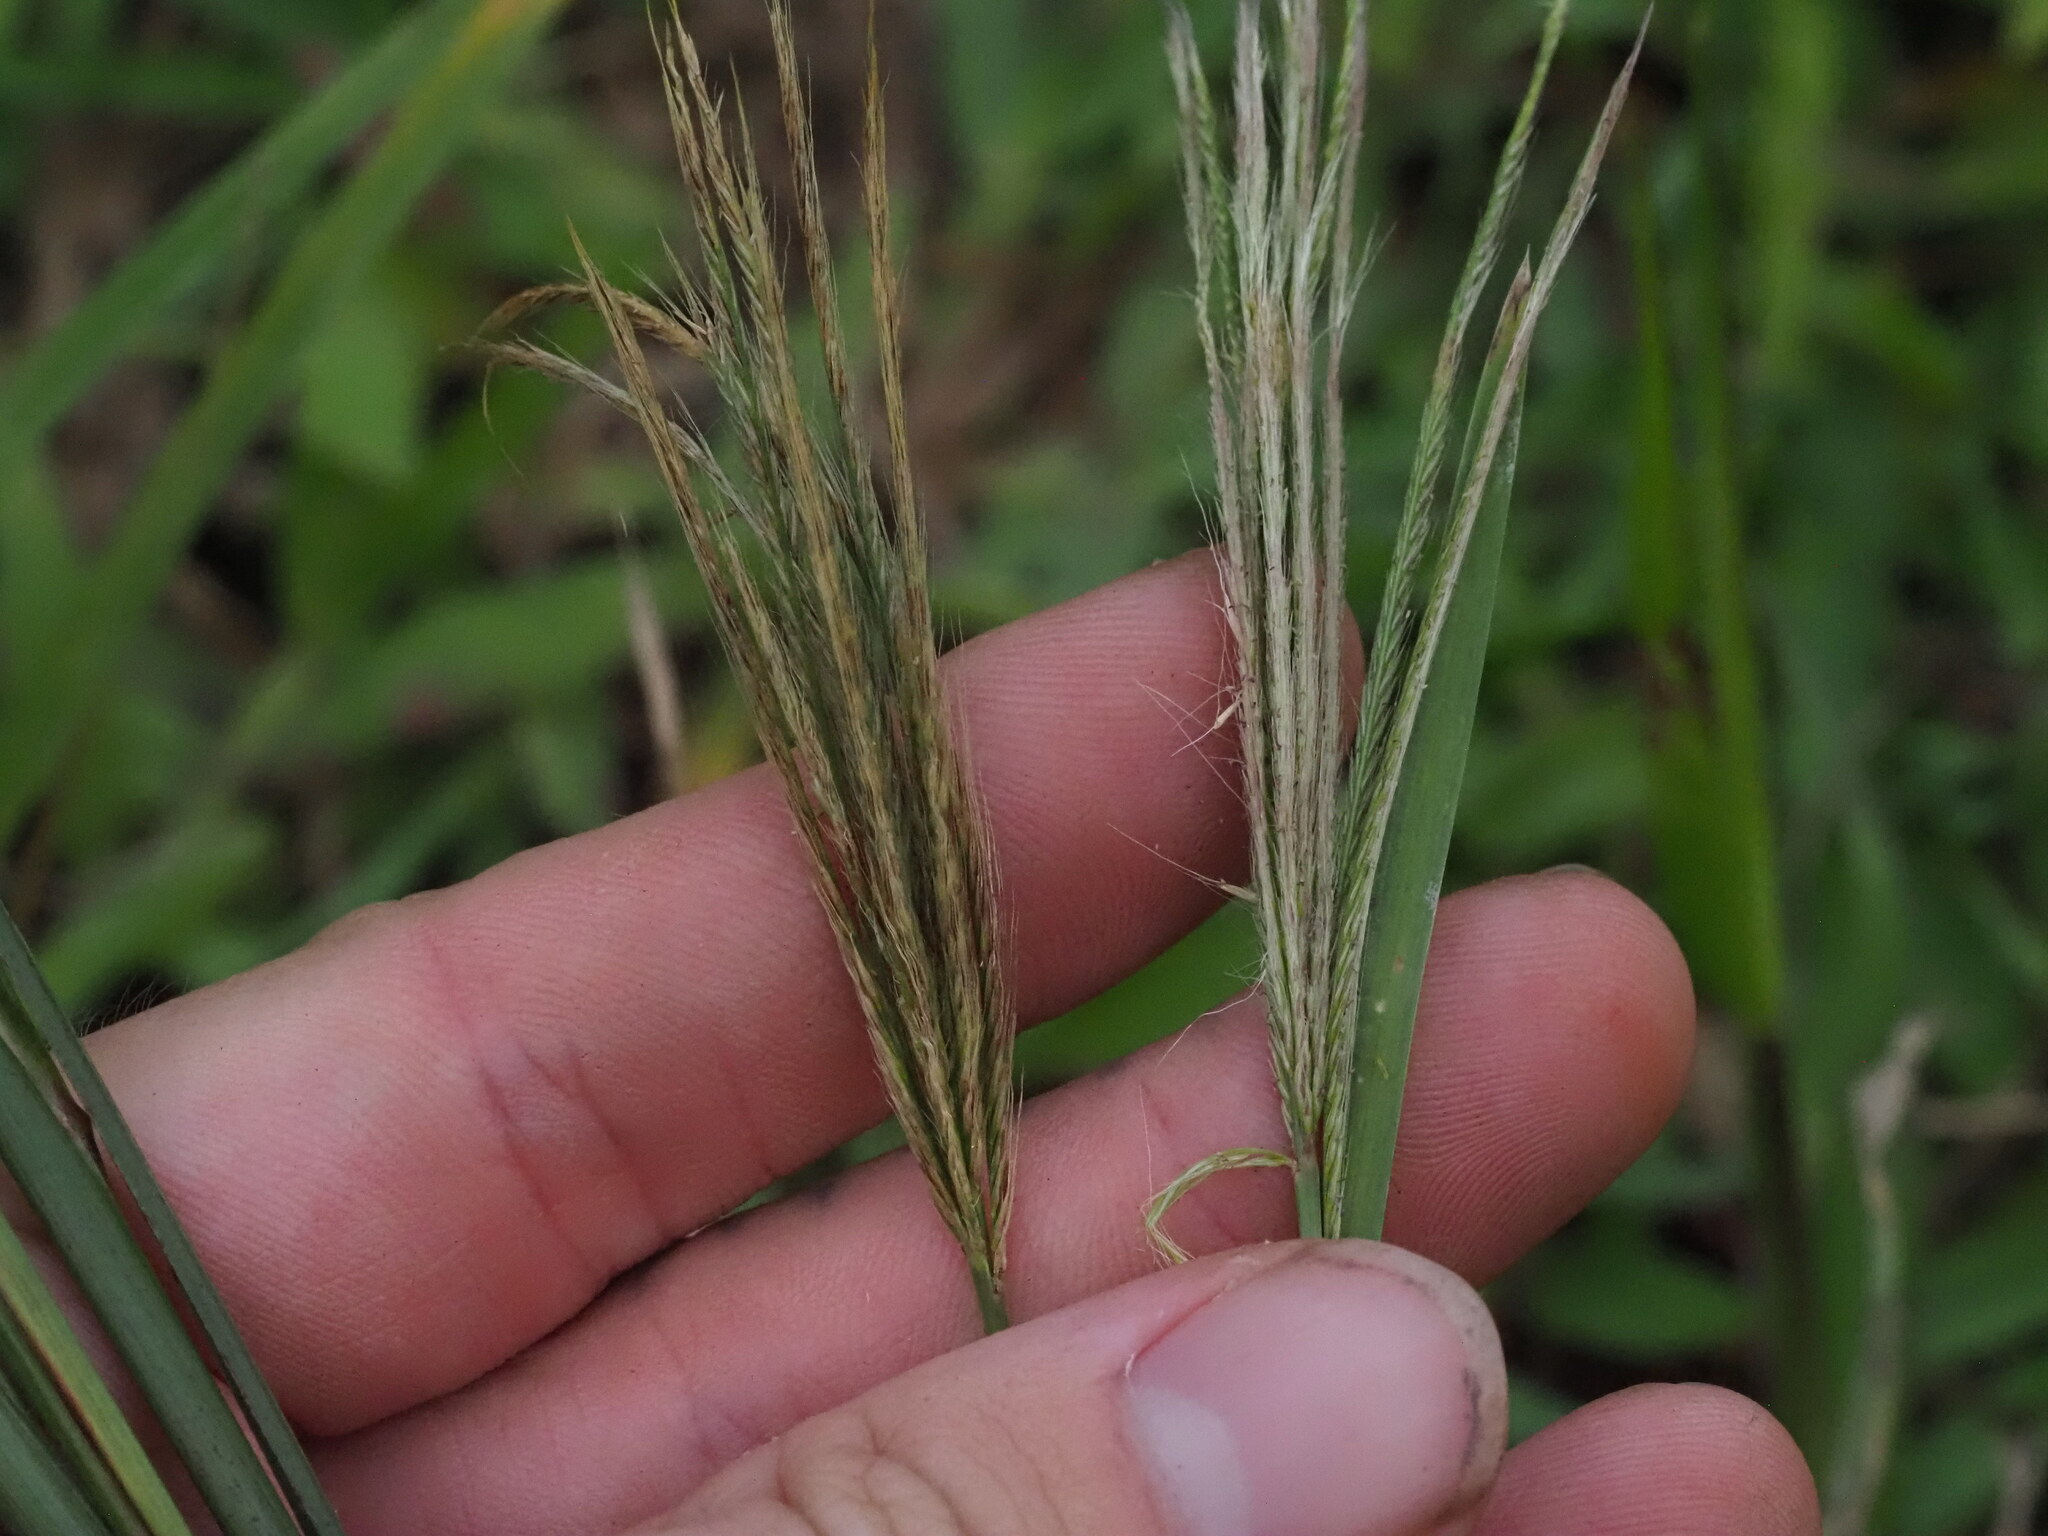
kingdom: Plantae
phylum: Tracheophyta
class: Liliopsida
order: Poales
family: Poaceae
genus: Chloris
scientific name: Chloris radiata
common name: Radiate fingergrass
